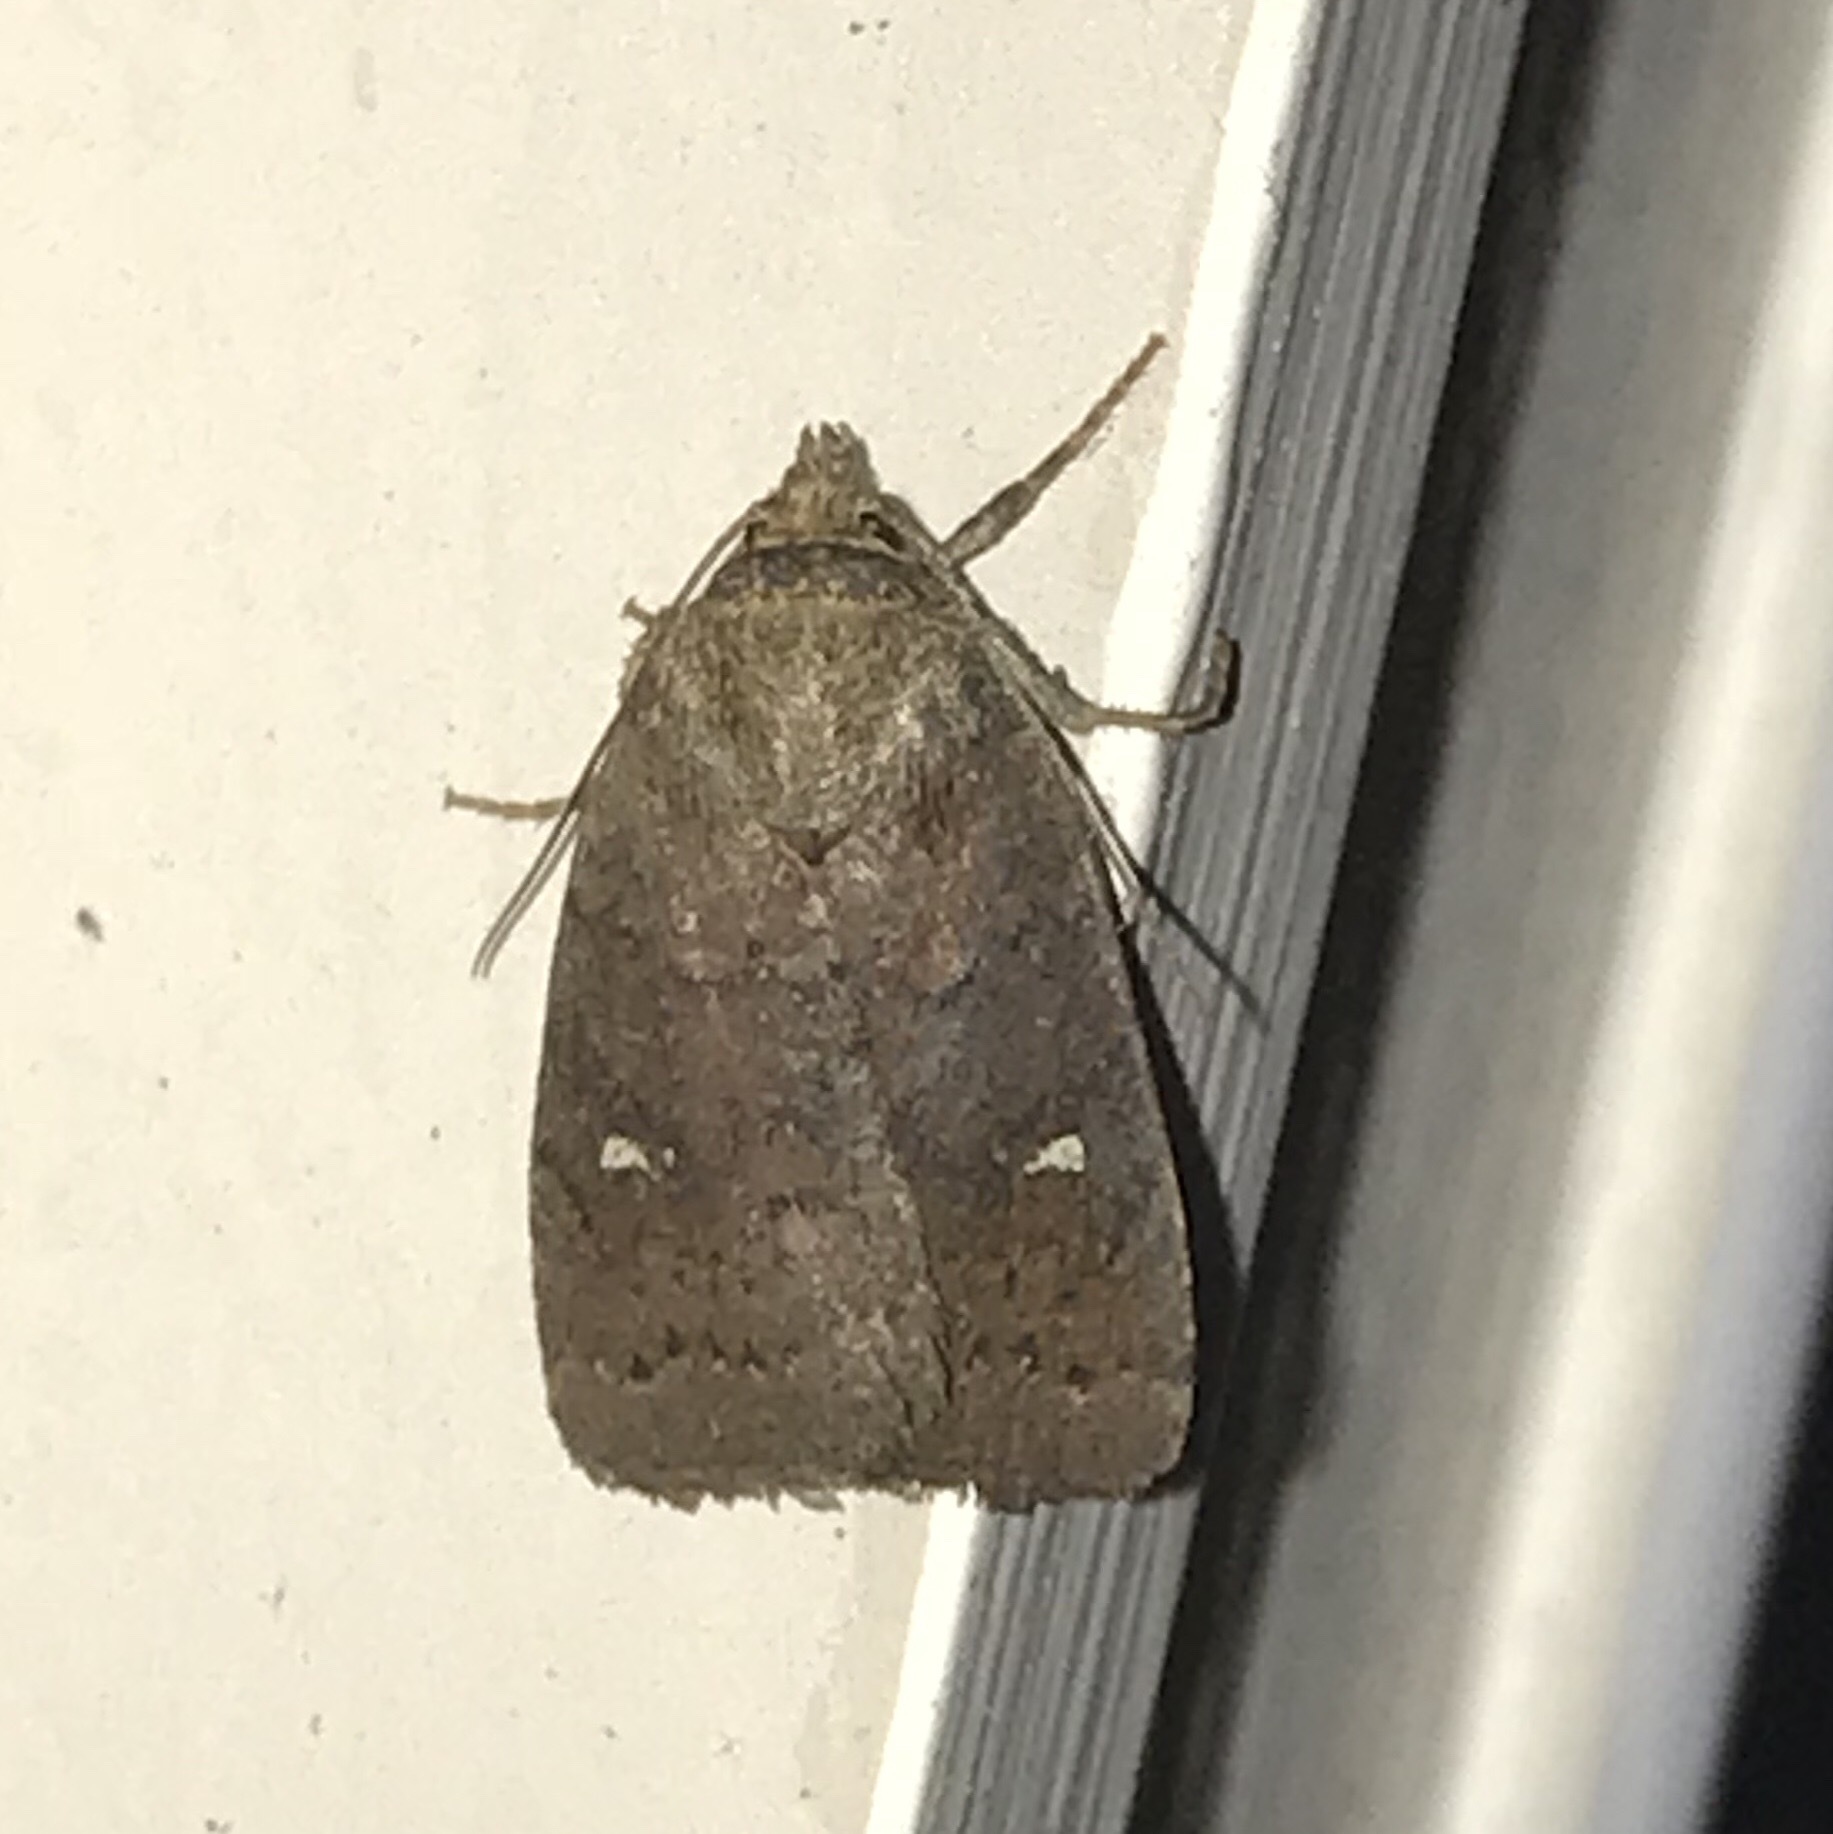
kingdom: Animalia
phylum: Arthropoda
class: Insecta
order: Lepidoptera
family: Noctuidae
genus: Pseudorthodes
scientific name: Pseudorthodes vecors
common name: Small brown quaker
